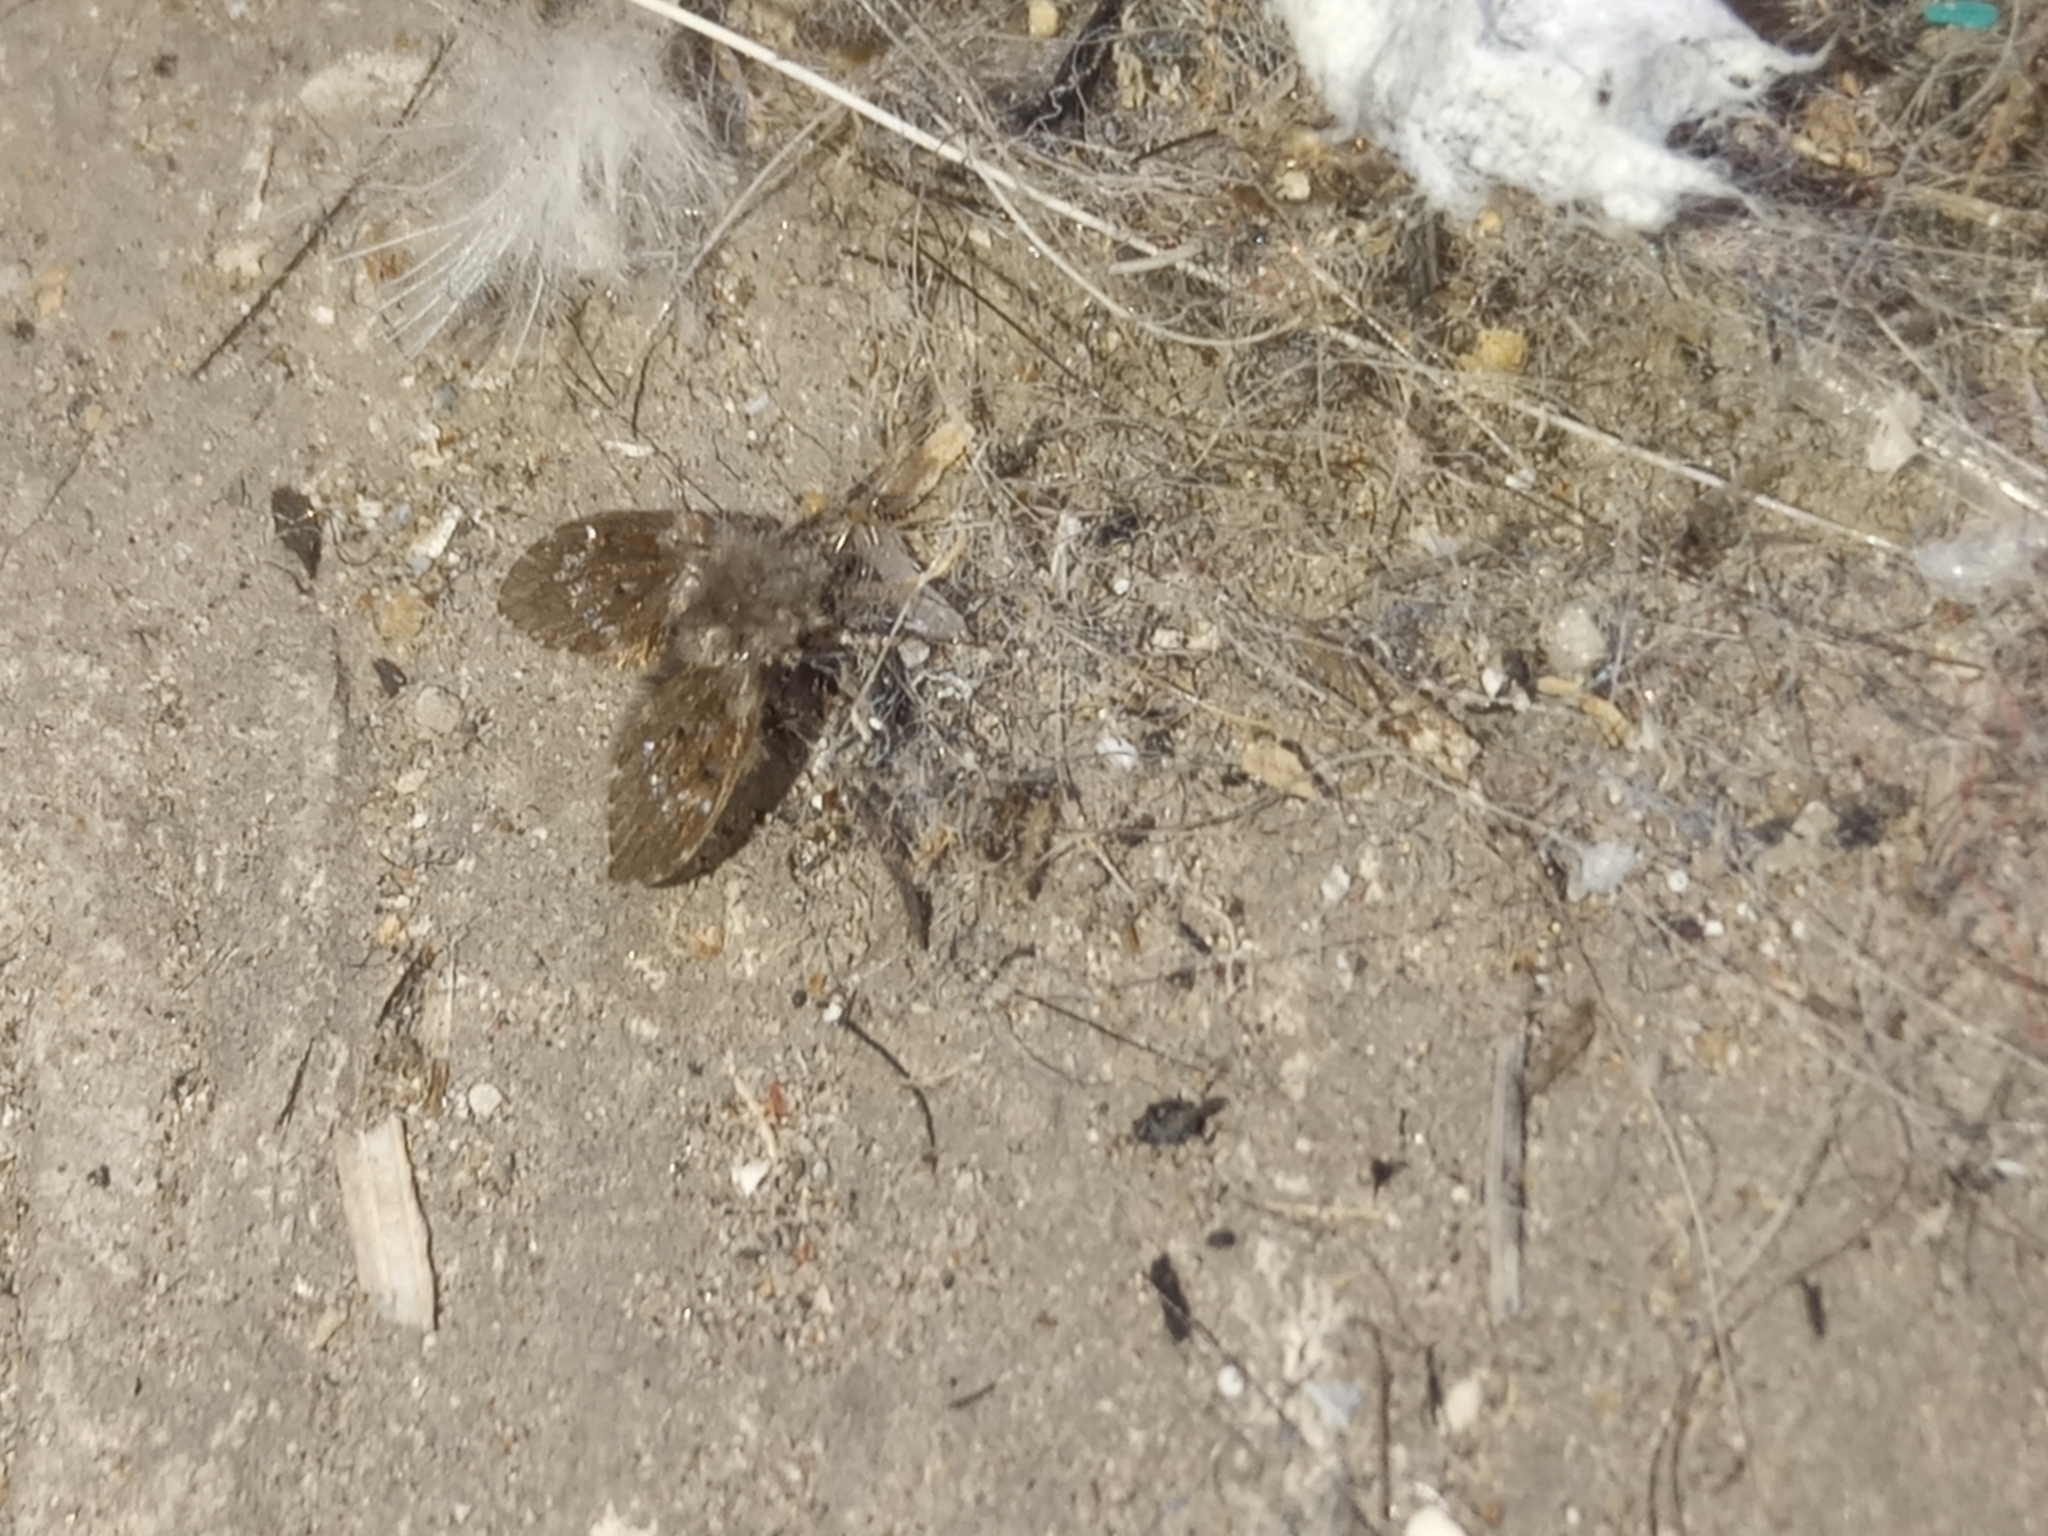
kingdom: Animalia
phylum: Arthropoda
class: Insecta
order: Diptera
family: Psychodidae
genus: Clogmia
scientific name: Clogmia albipunctatus
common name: White-spotted moth fly
